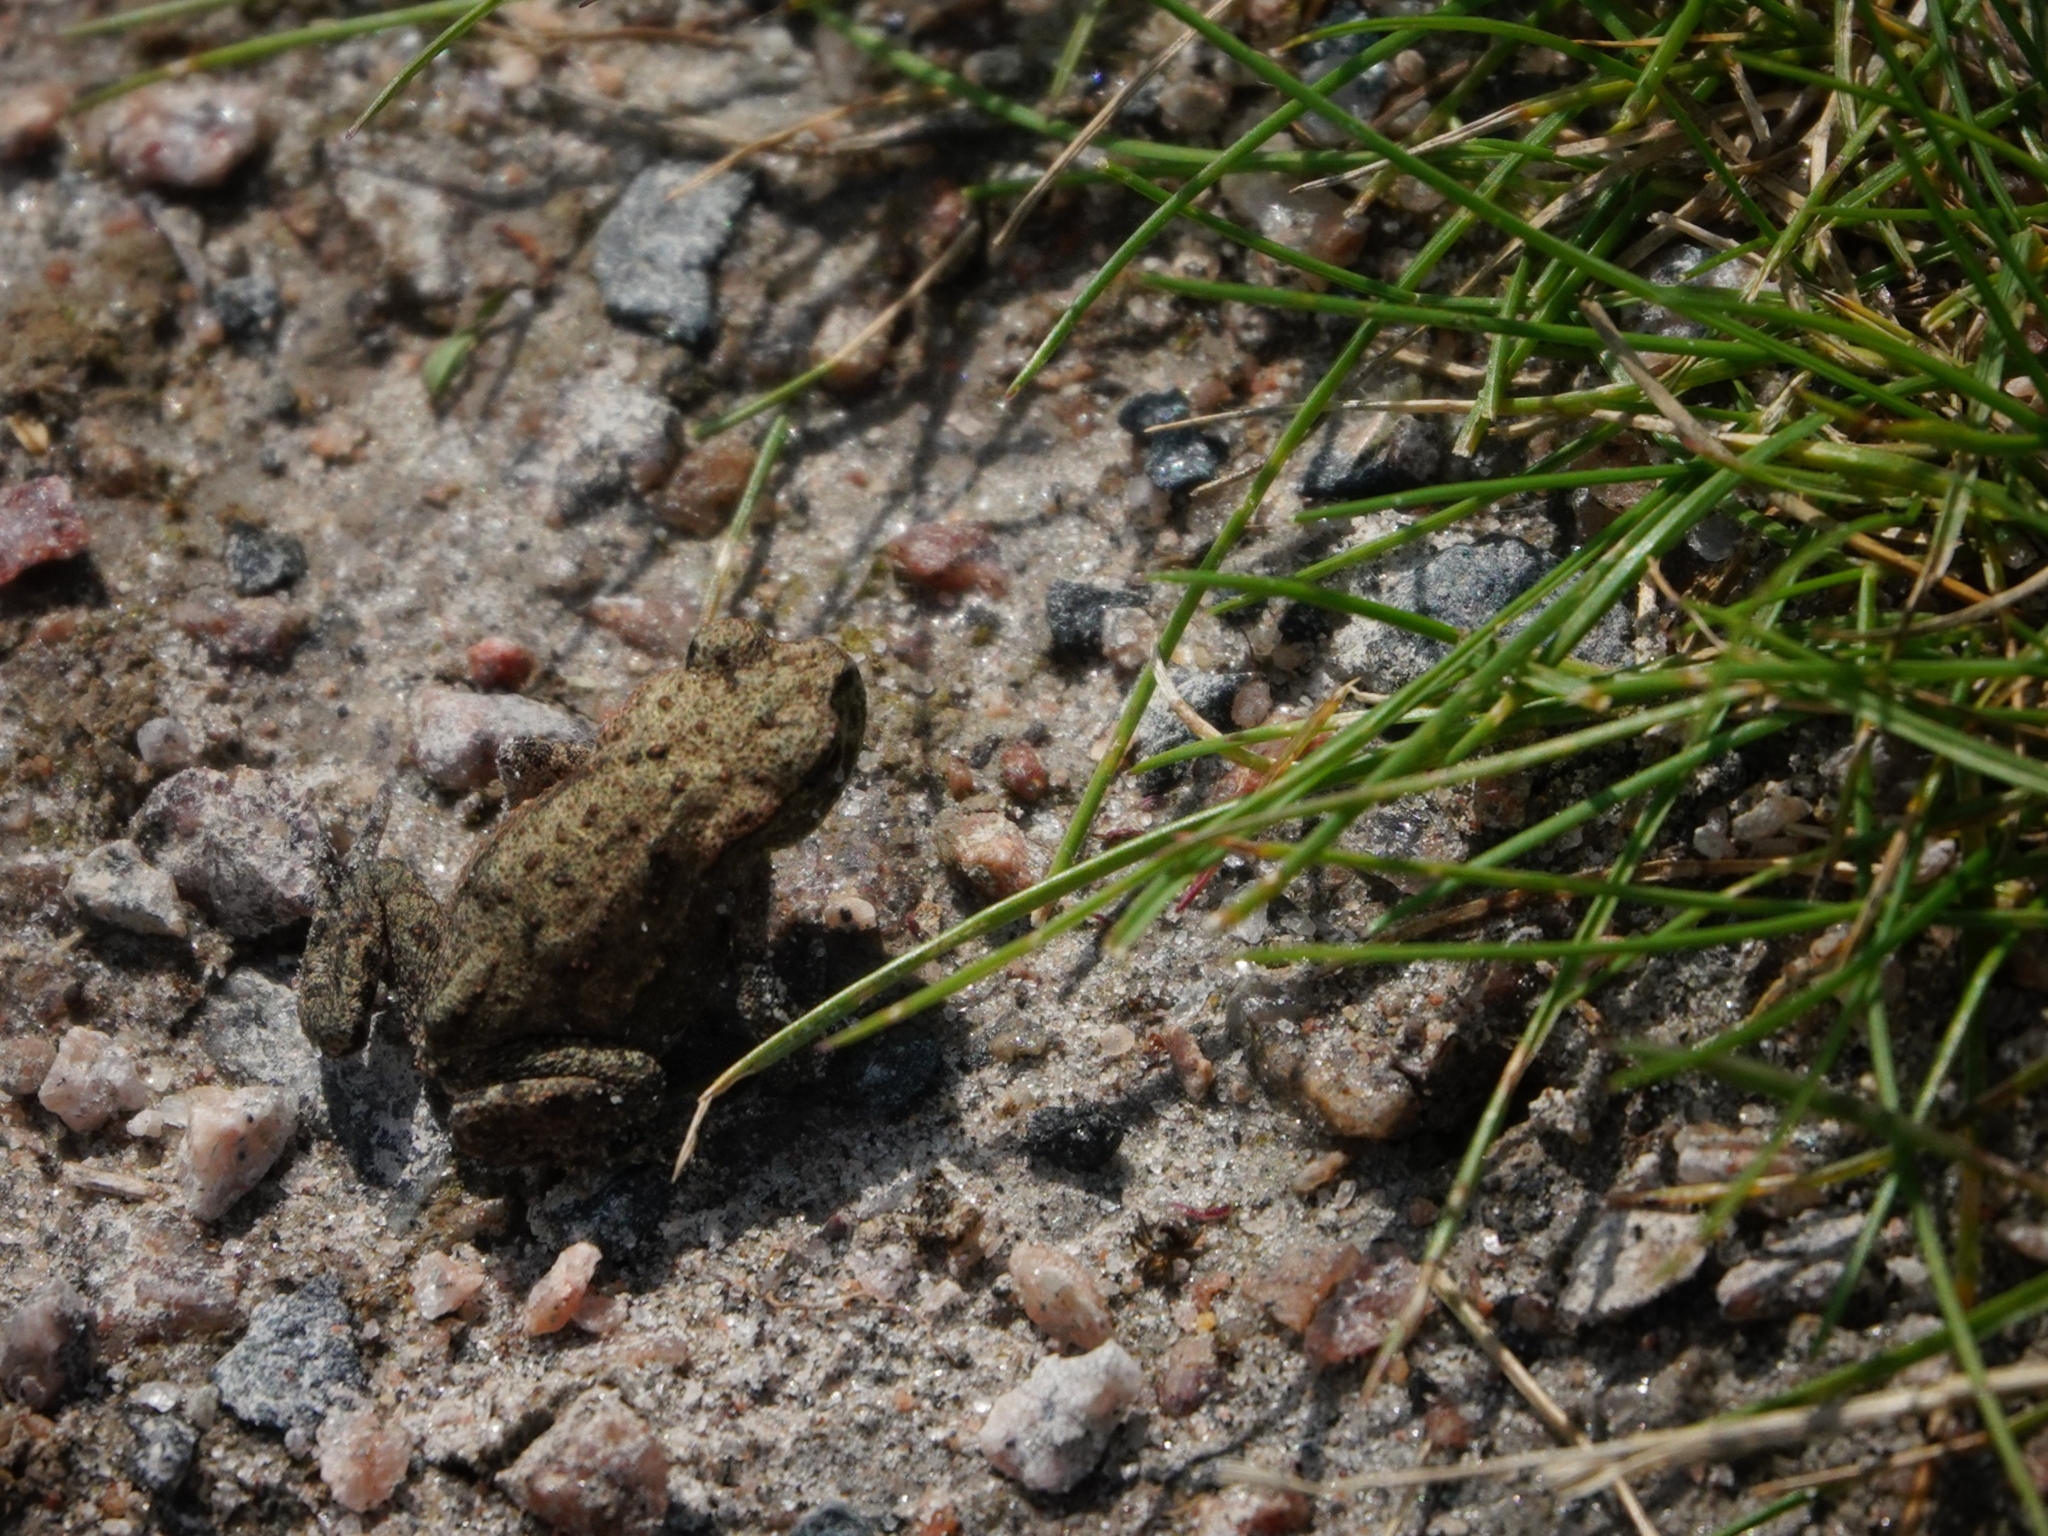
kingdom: Animalia
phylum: Chordata
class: Amphibia
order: Anura
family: Bufonidae
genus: Bufo
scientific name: Bufo bufo
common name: Common toad
